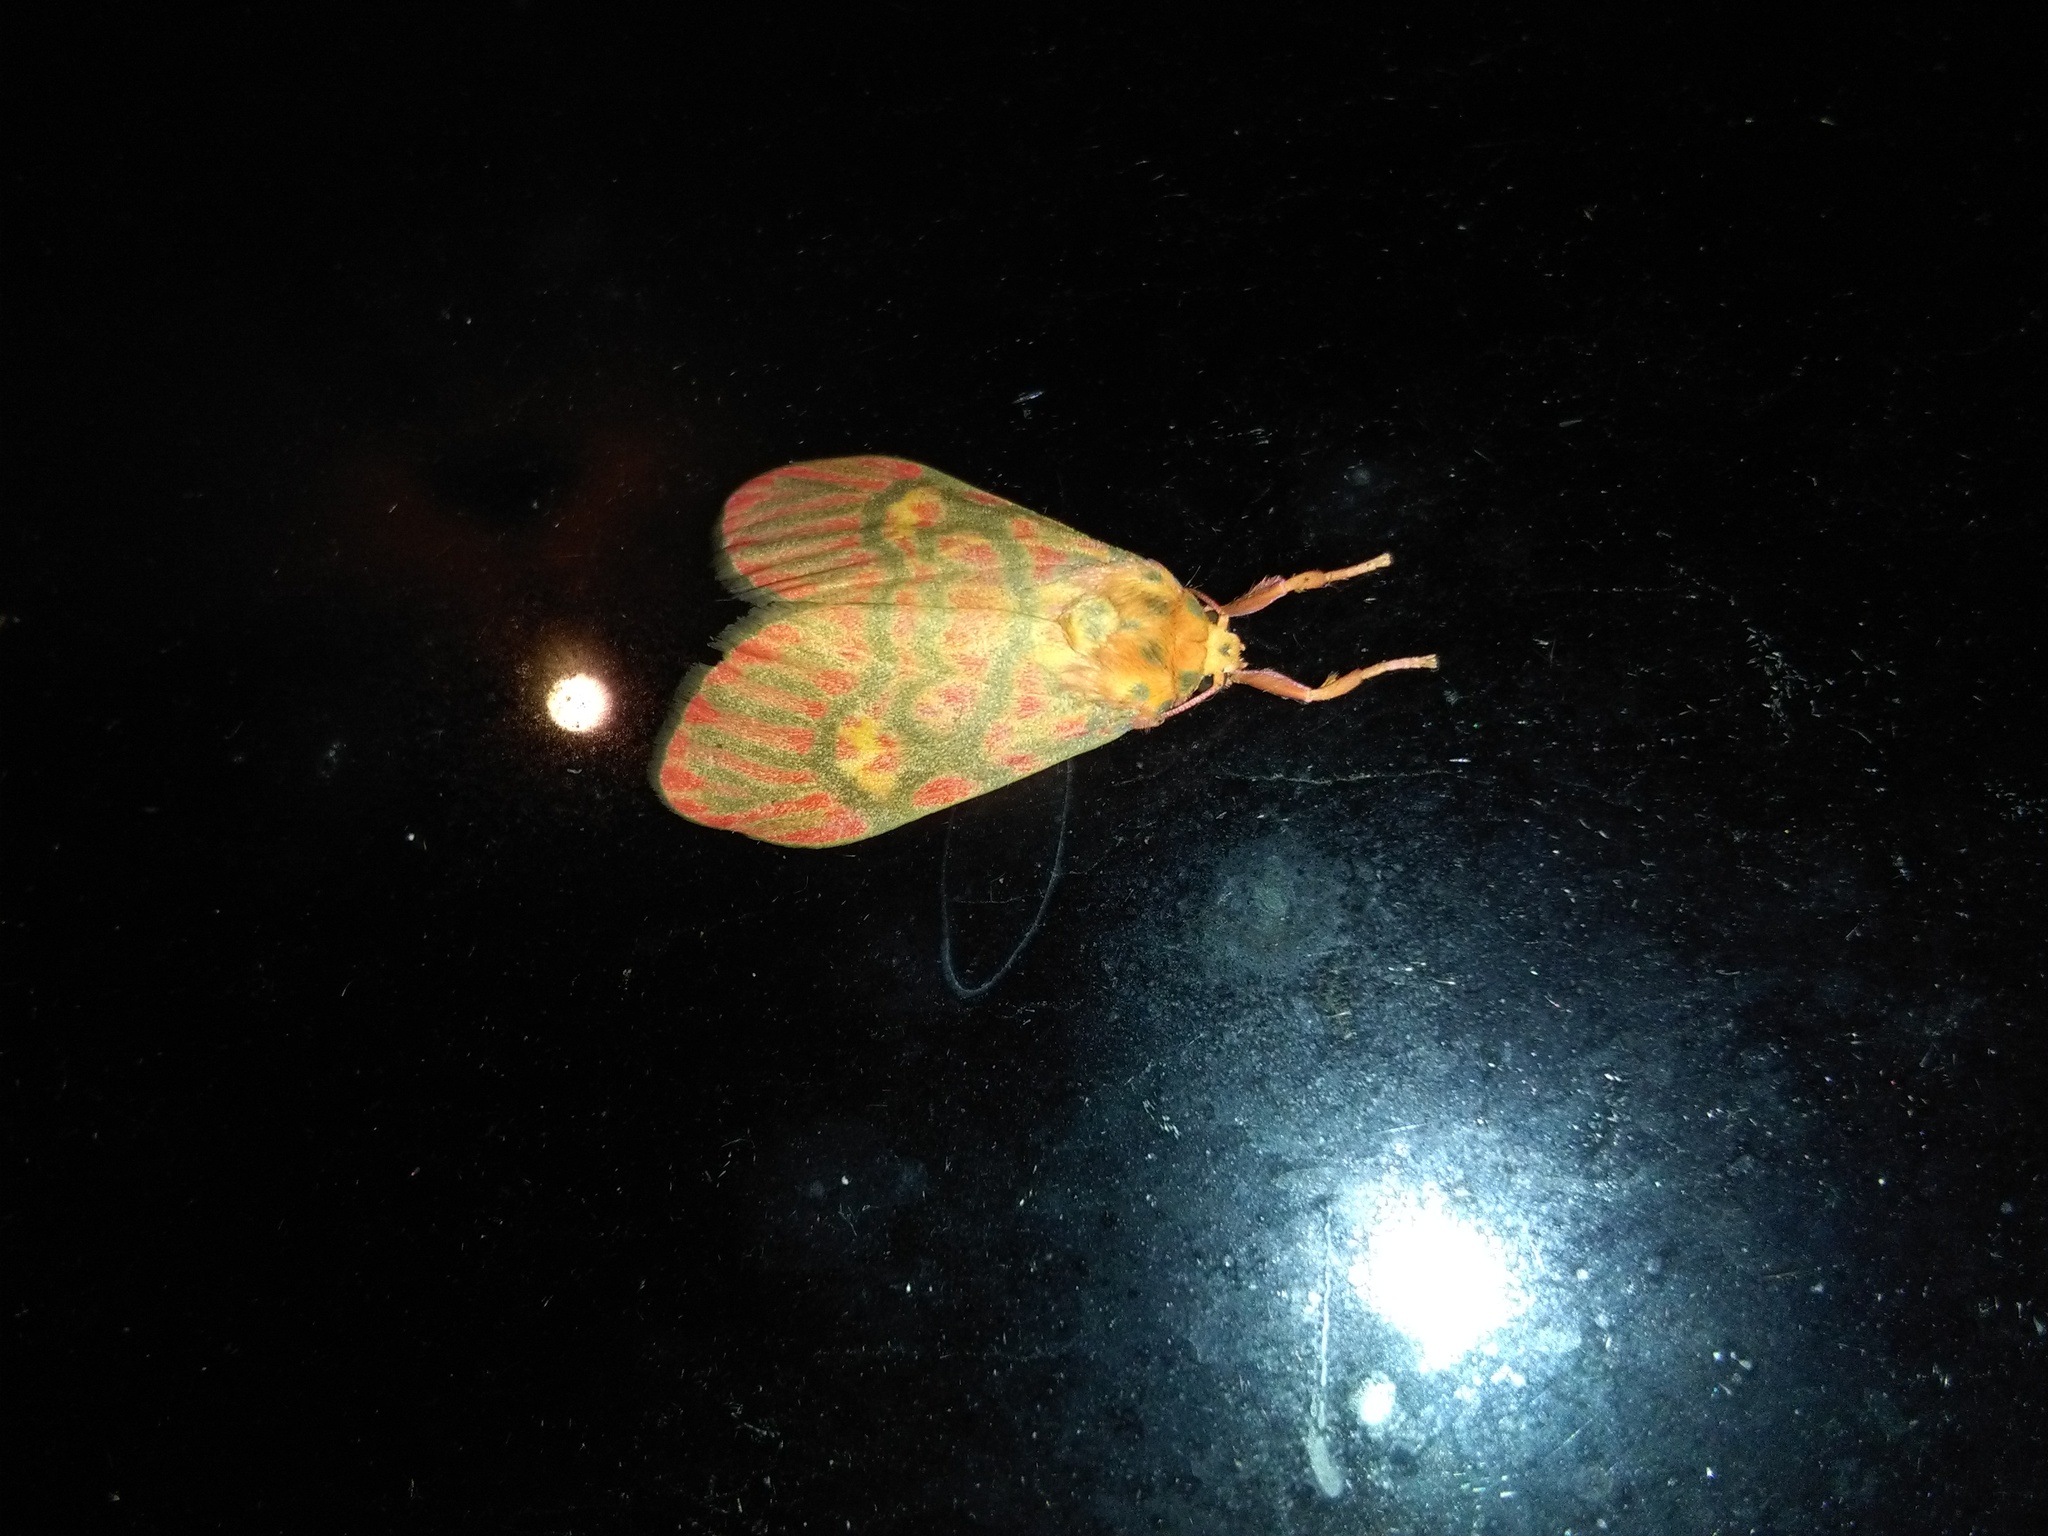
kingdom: Animalia
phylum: Arthropoda
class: Insecta
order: Lepidoptera
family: Erebidae
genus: Ammatho
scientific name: Ammatho cuneonotatus
